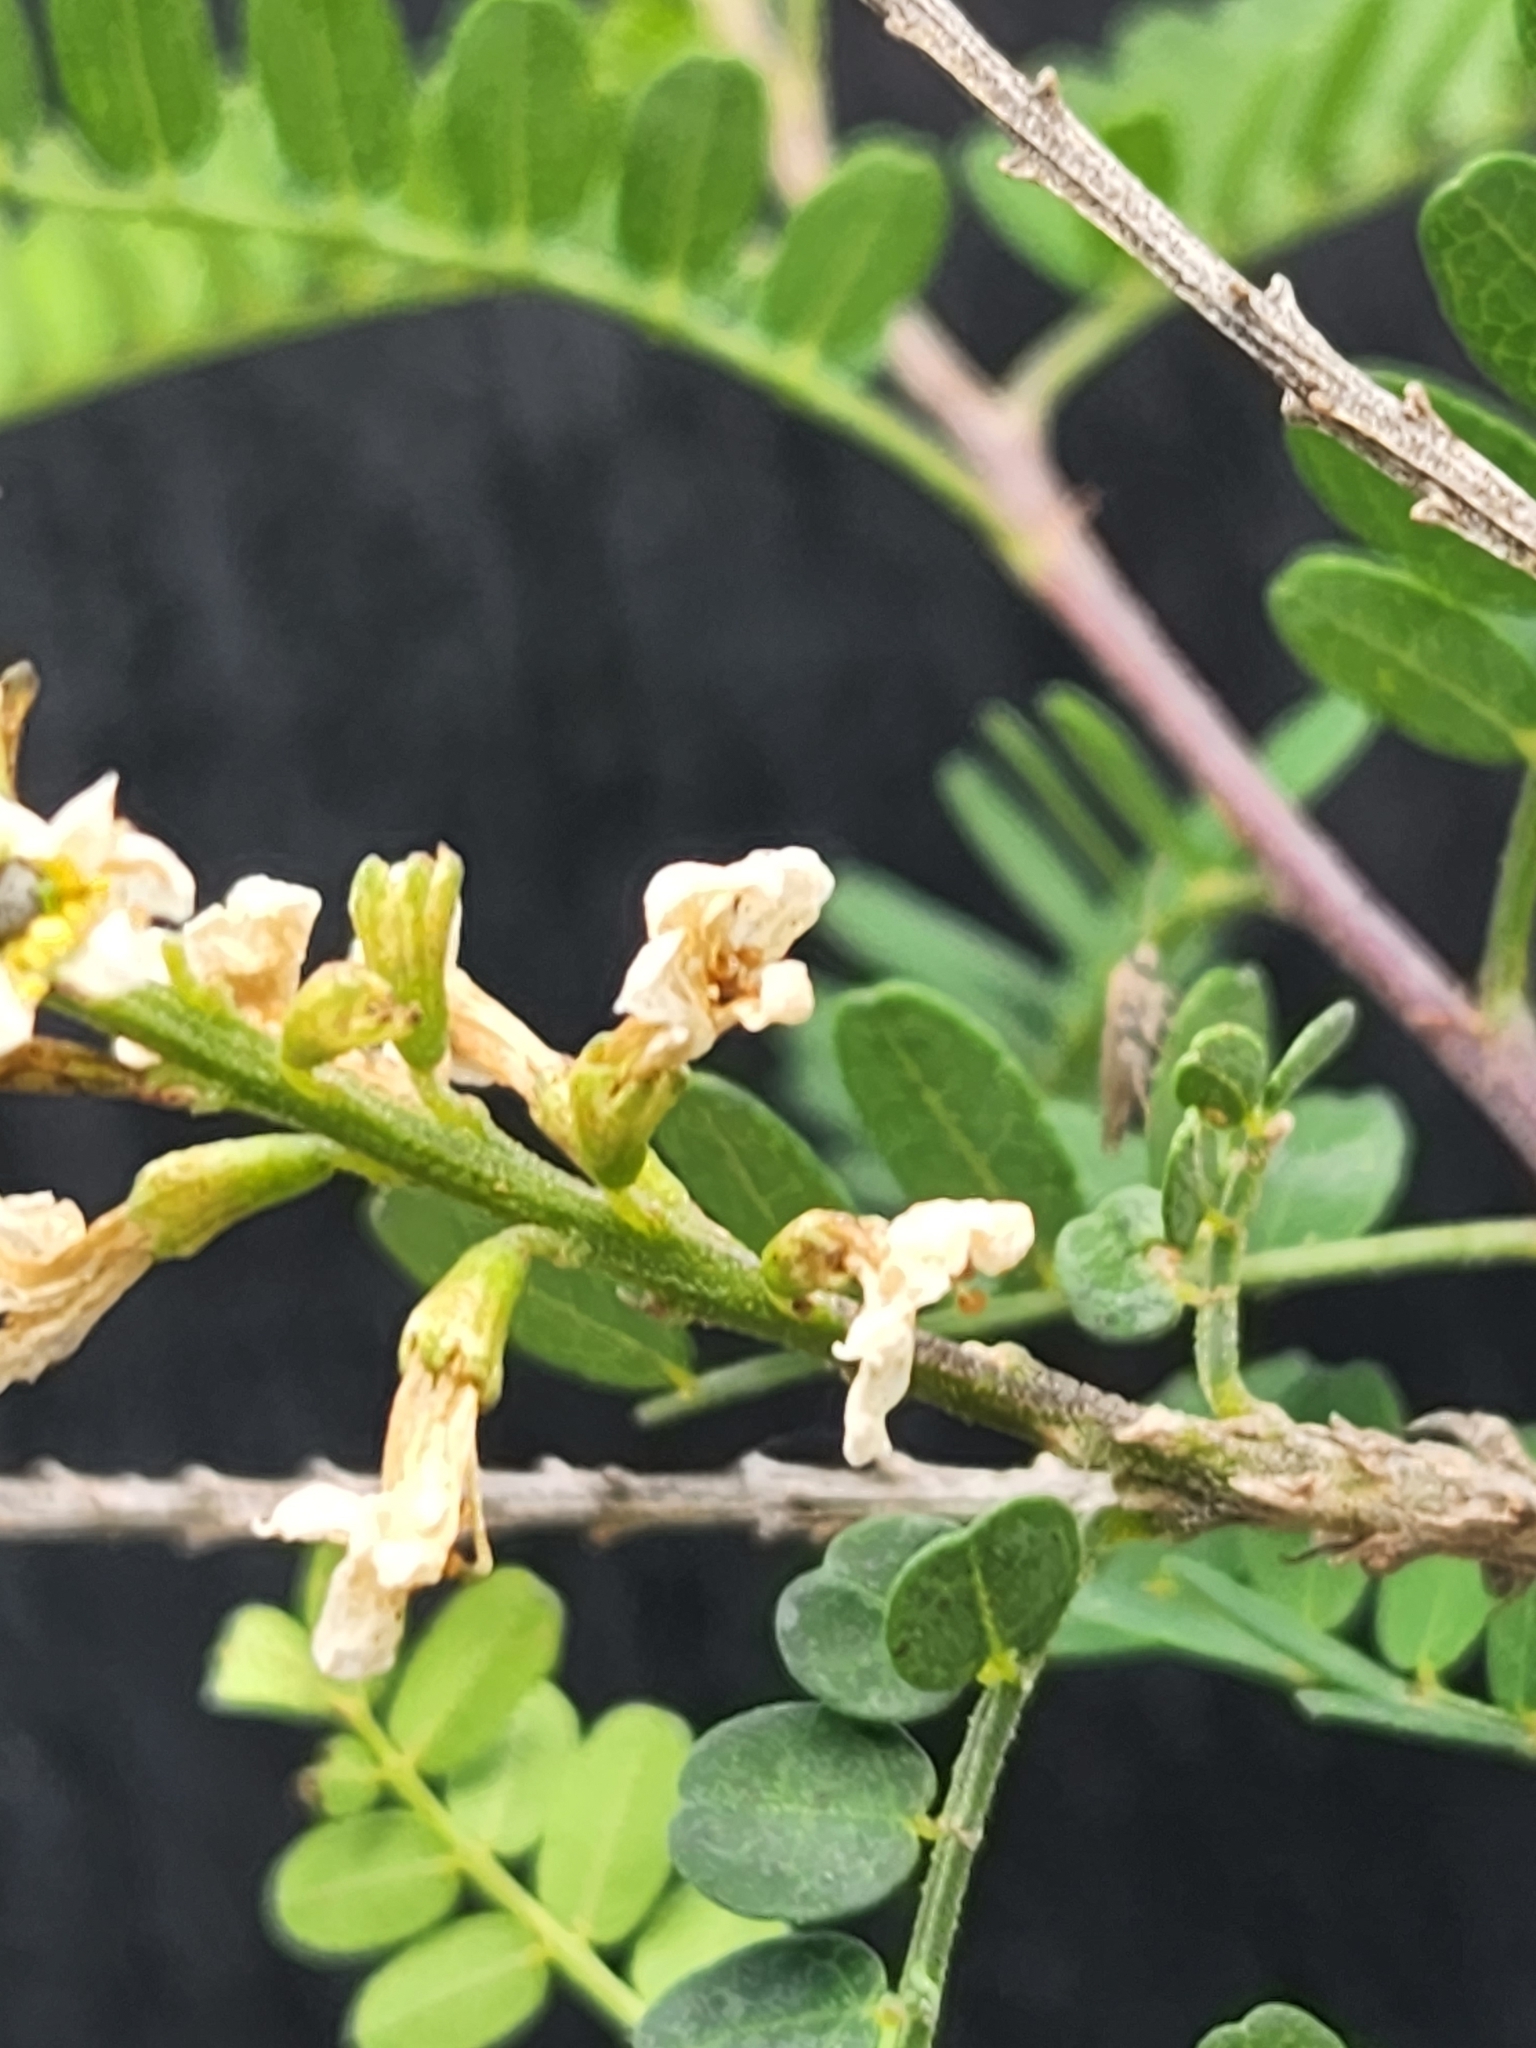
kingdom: Plantae
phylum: Tracheophyta
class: Magnoliopsida
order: Fabales
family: Fabaceae
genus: Eysenhardtia
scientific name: Eysenhardtia texana
